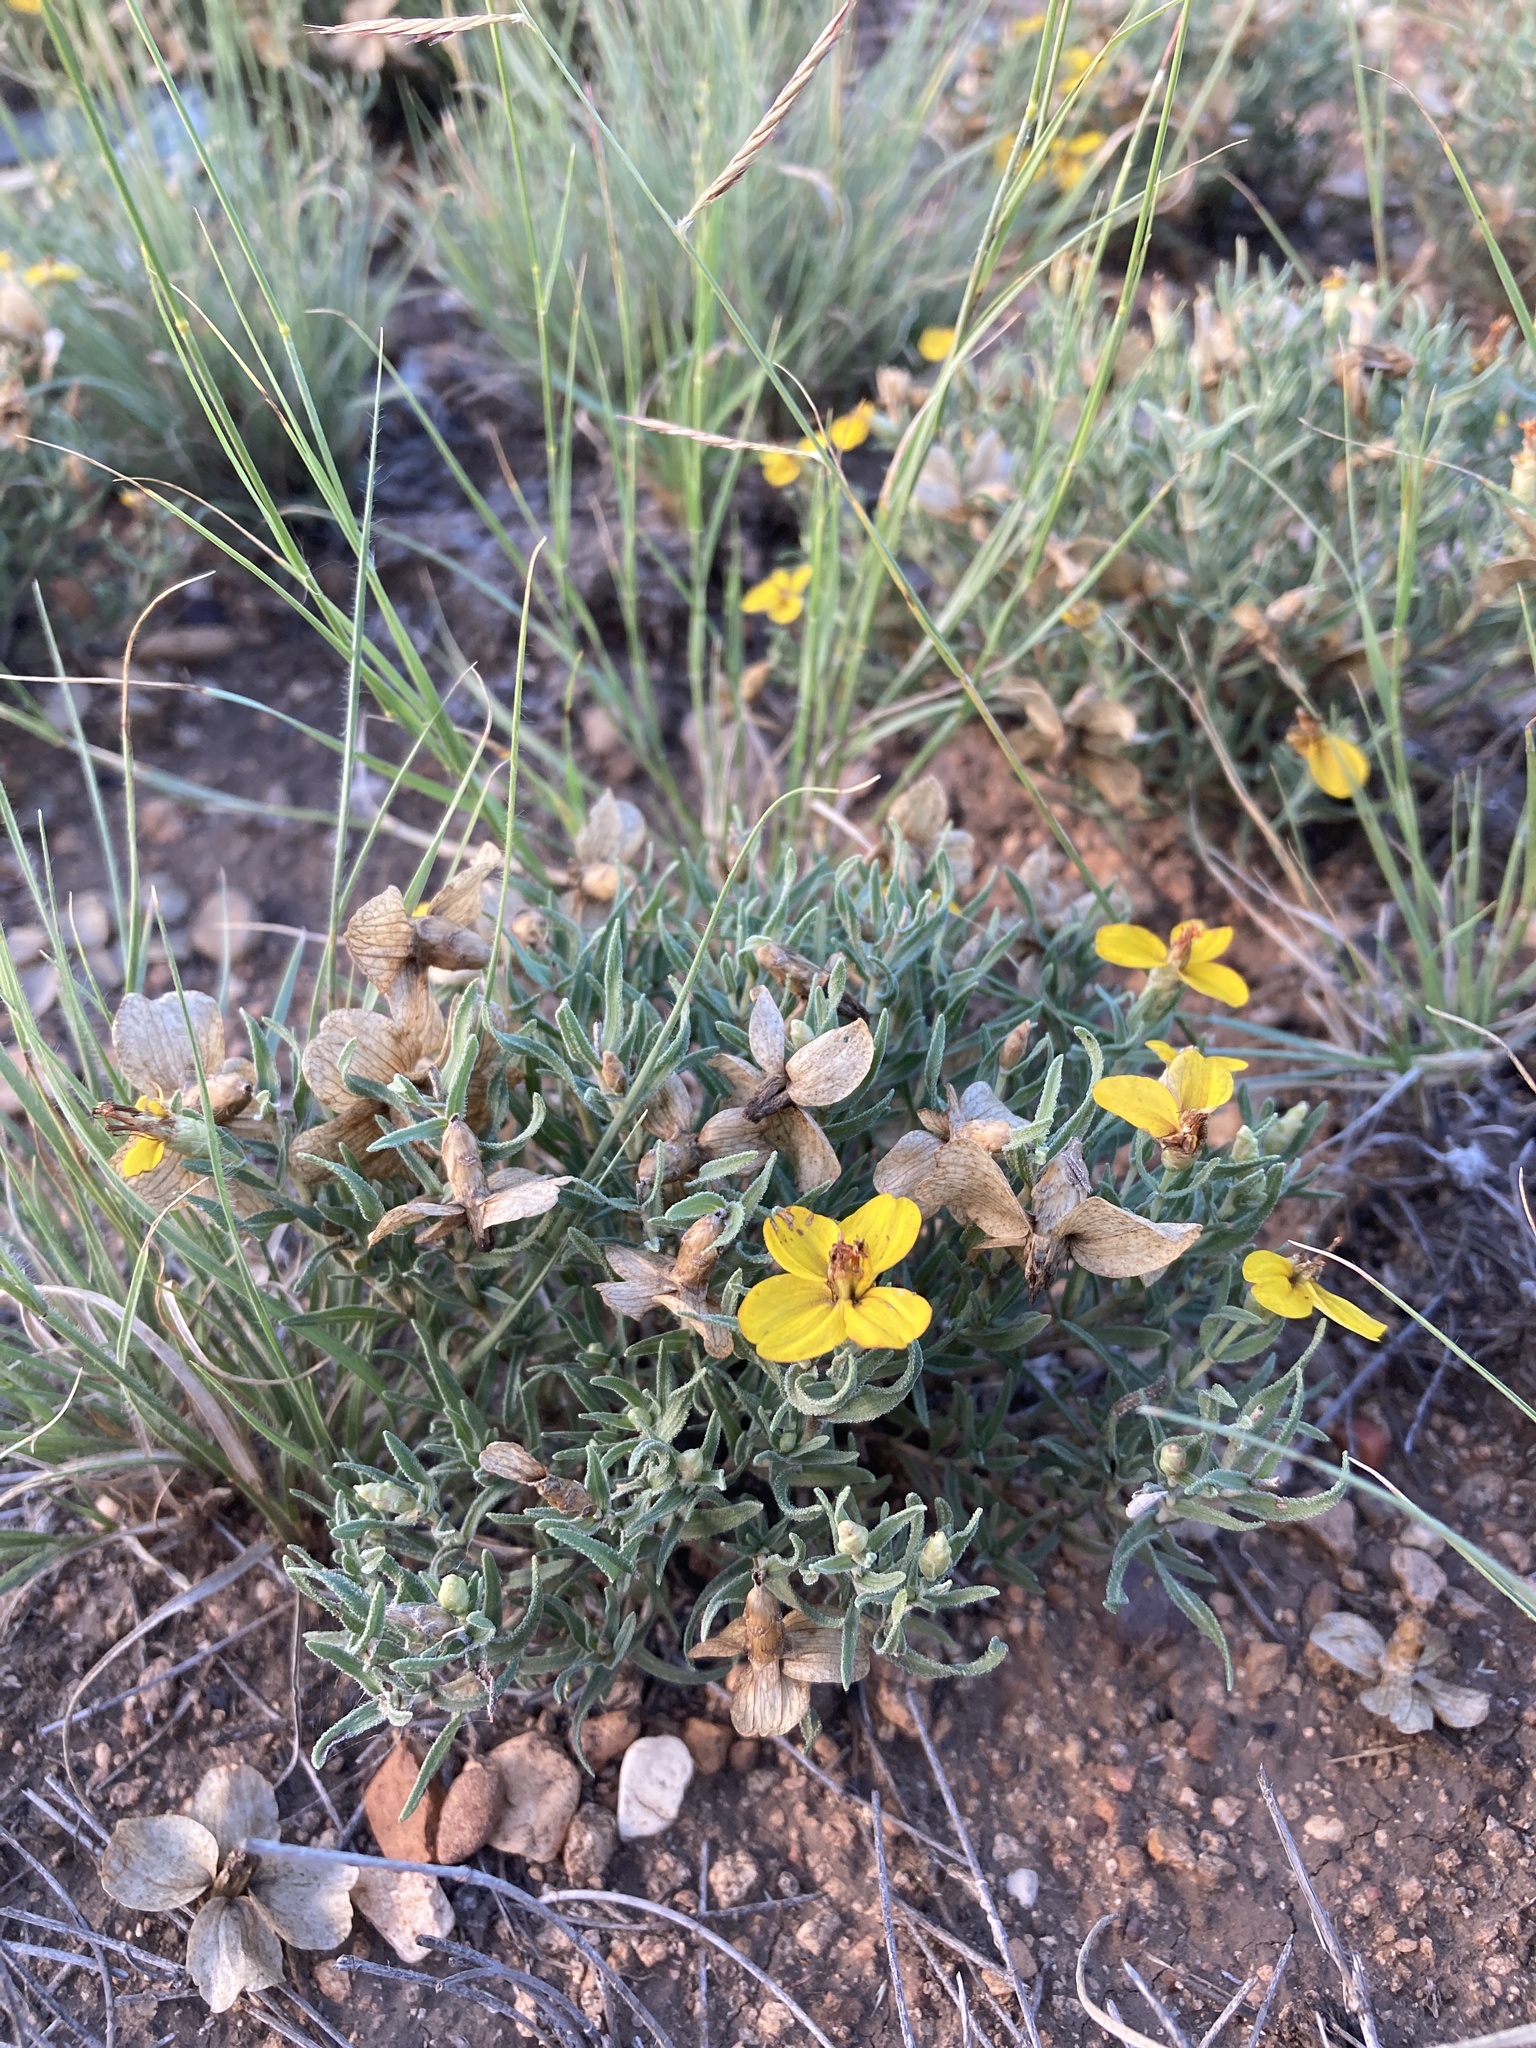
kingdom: Plantae
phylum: Tracheophyta
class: Magnoliopsida
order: Asterales
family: Asteraceae
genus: Zinnia
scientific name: Zinnia grandiflora
